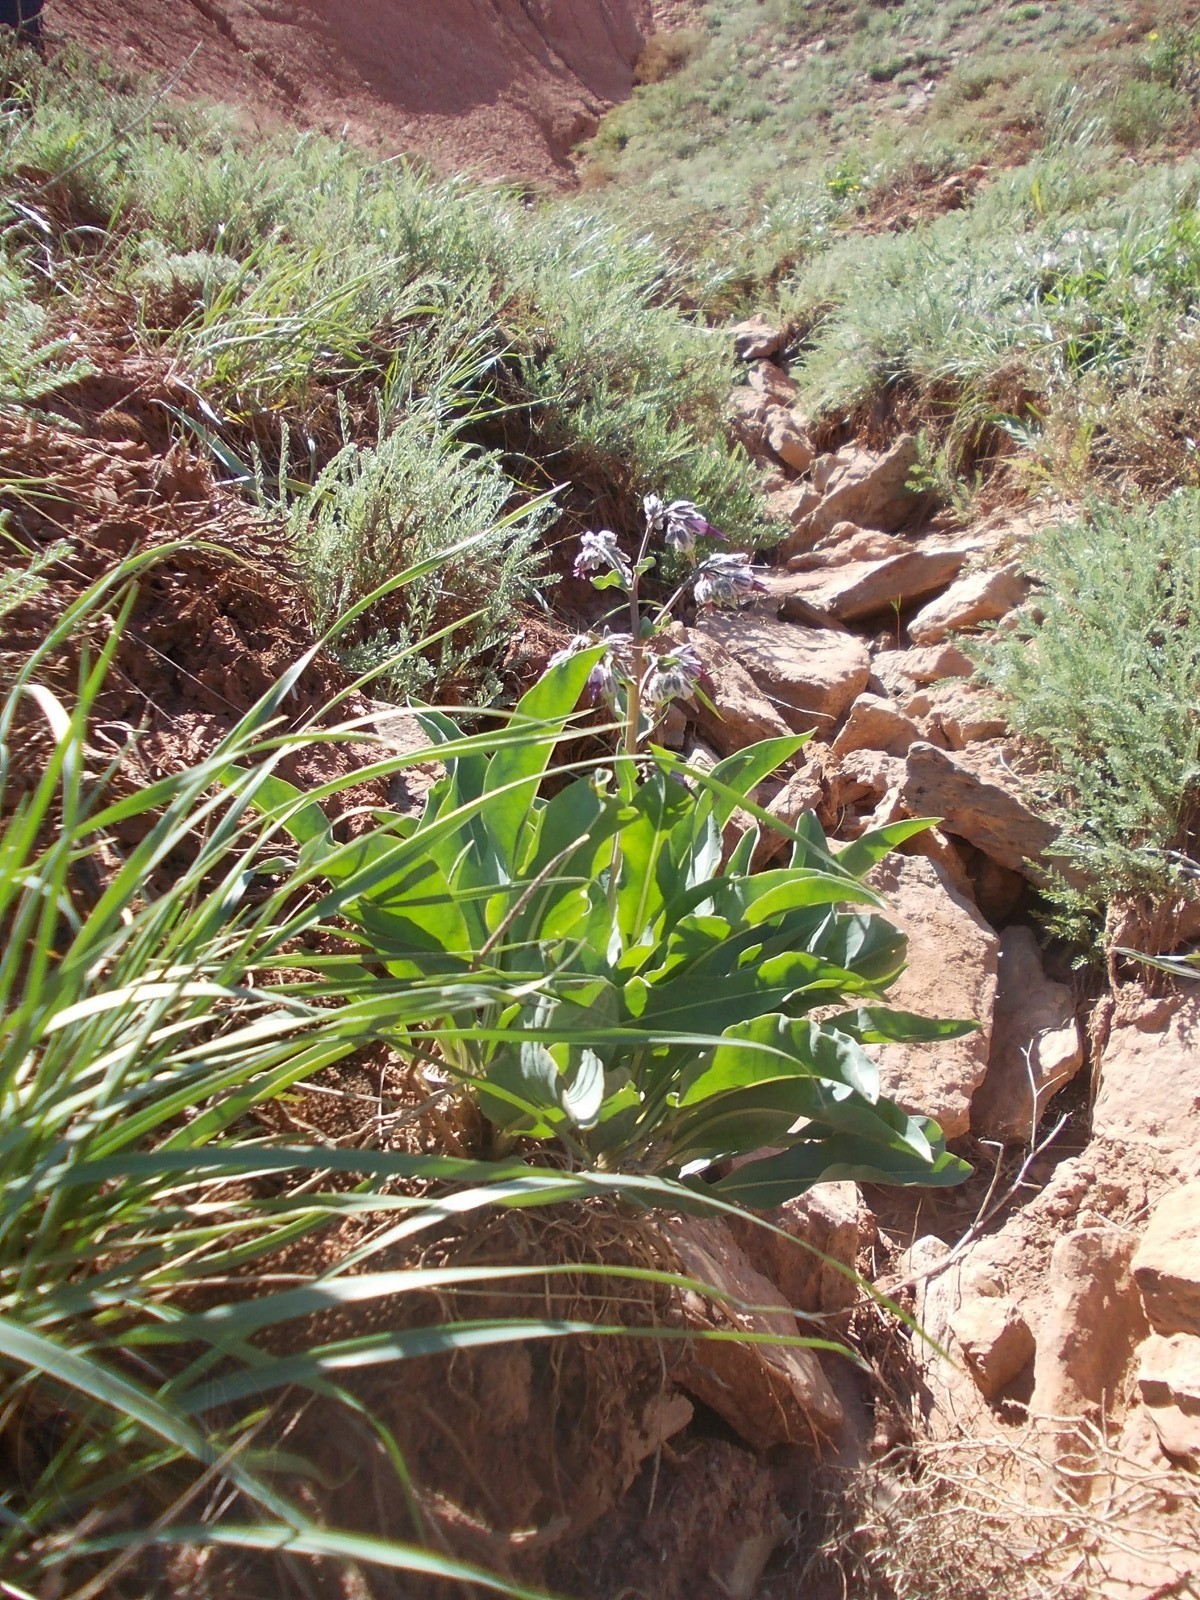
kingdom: Plantae
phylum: Tracheophyta
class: Magnoliopsida
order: Boraginales
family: Boraginaceae
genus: Rindera
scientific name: Rindera tetraspis
